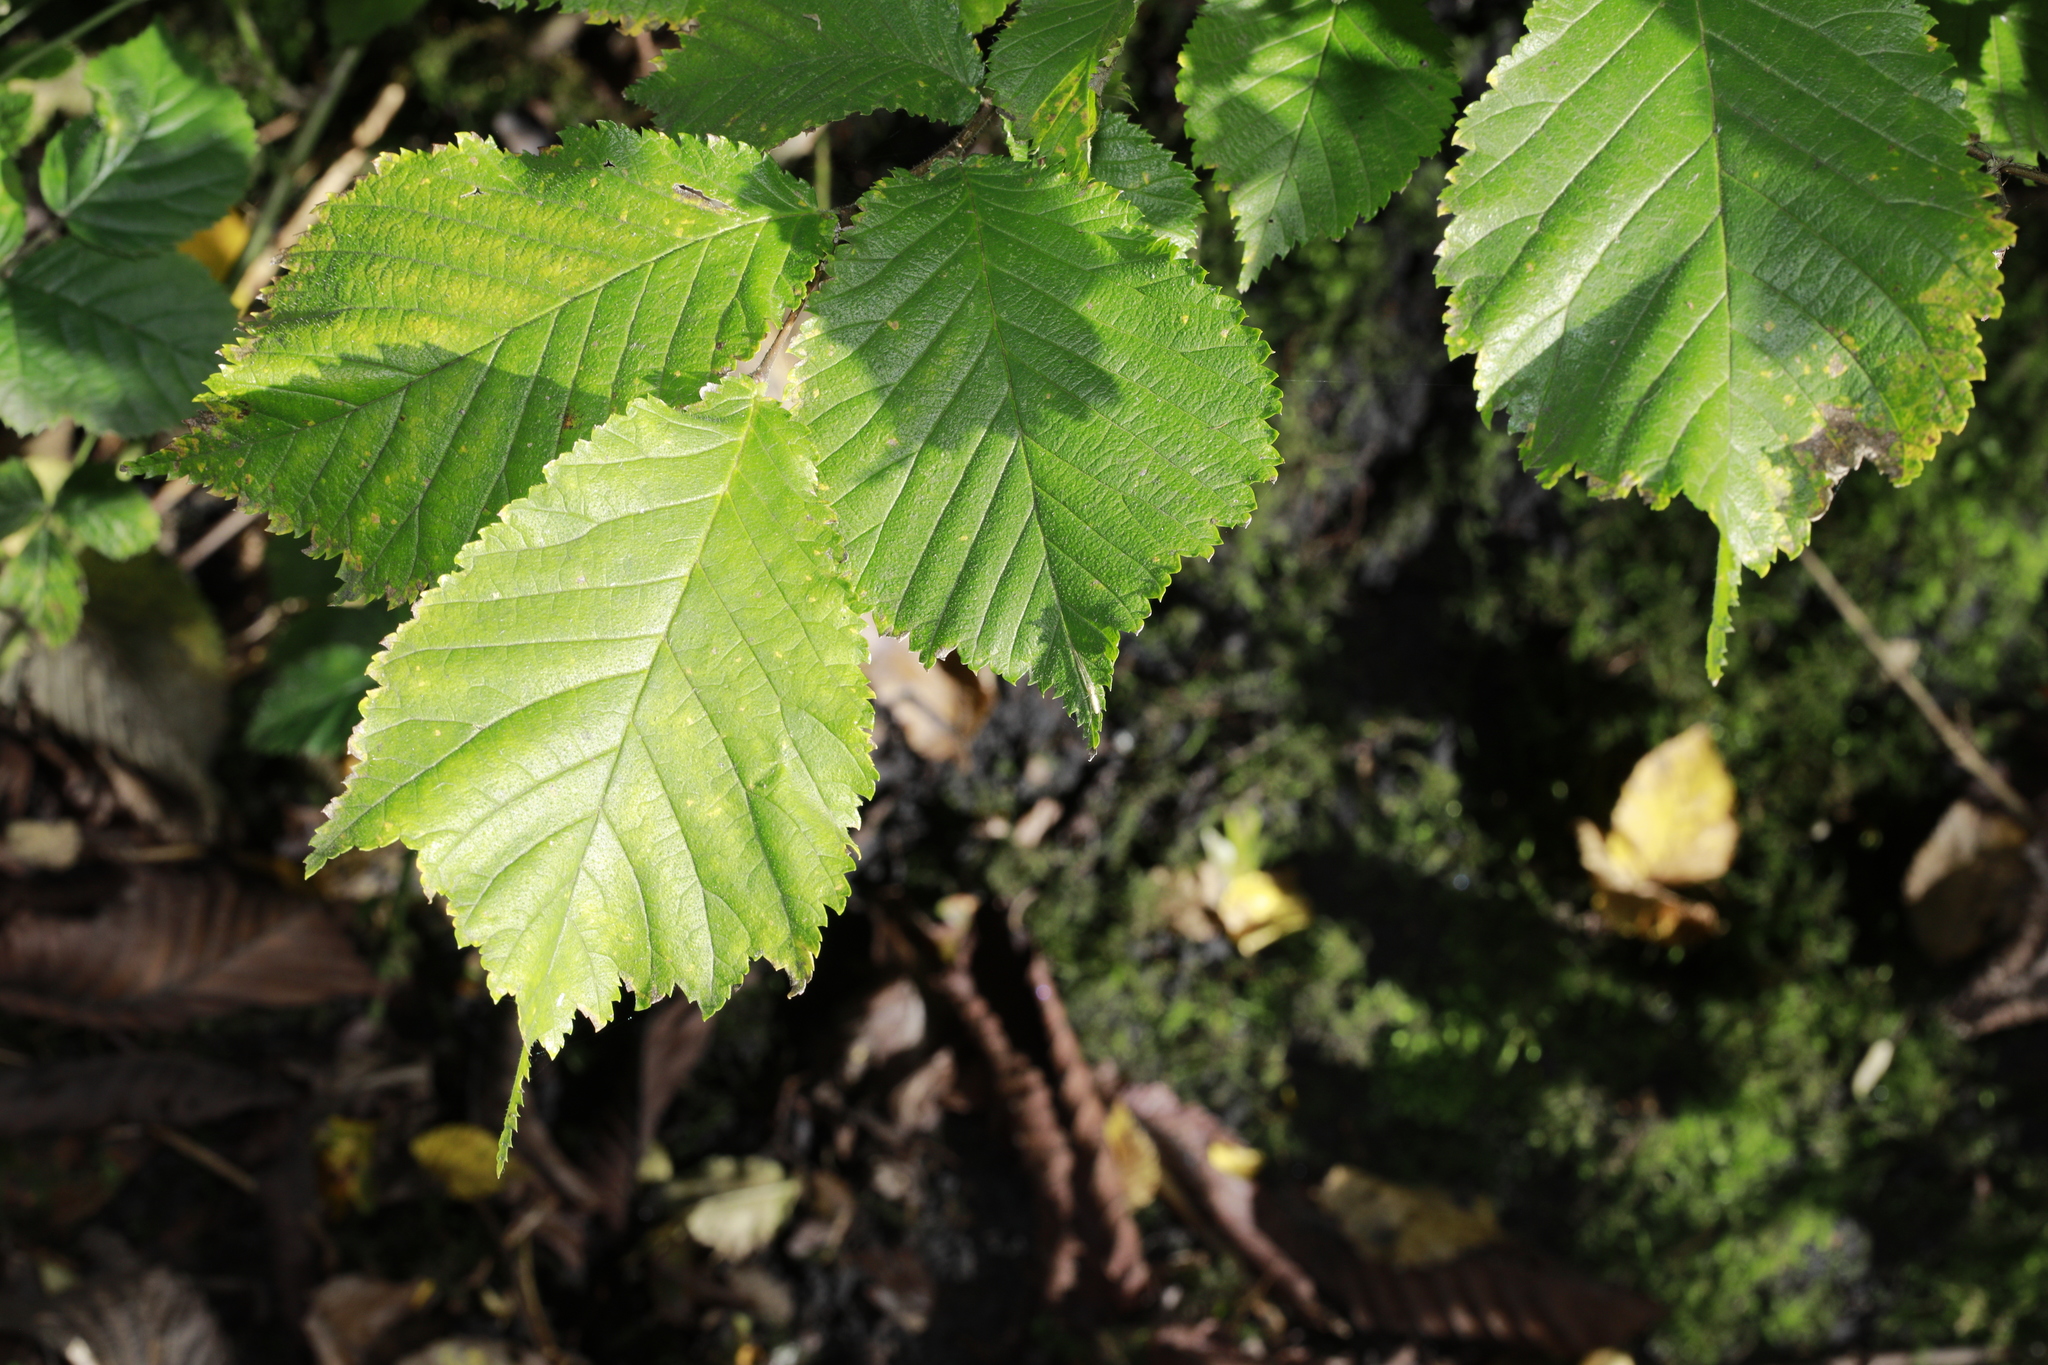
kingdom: Plantae
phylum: Tracheophyta
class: Magnoliopsida
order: Rosales
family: Ulmaceae
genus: Ulmus
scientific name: Ulmus glabra
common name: Wych elm
